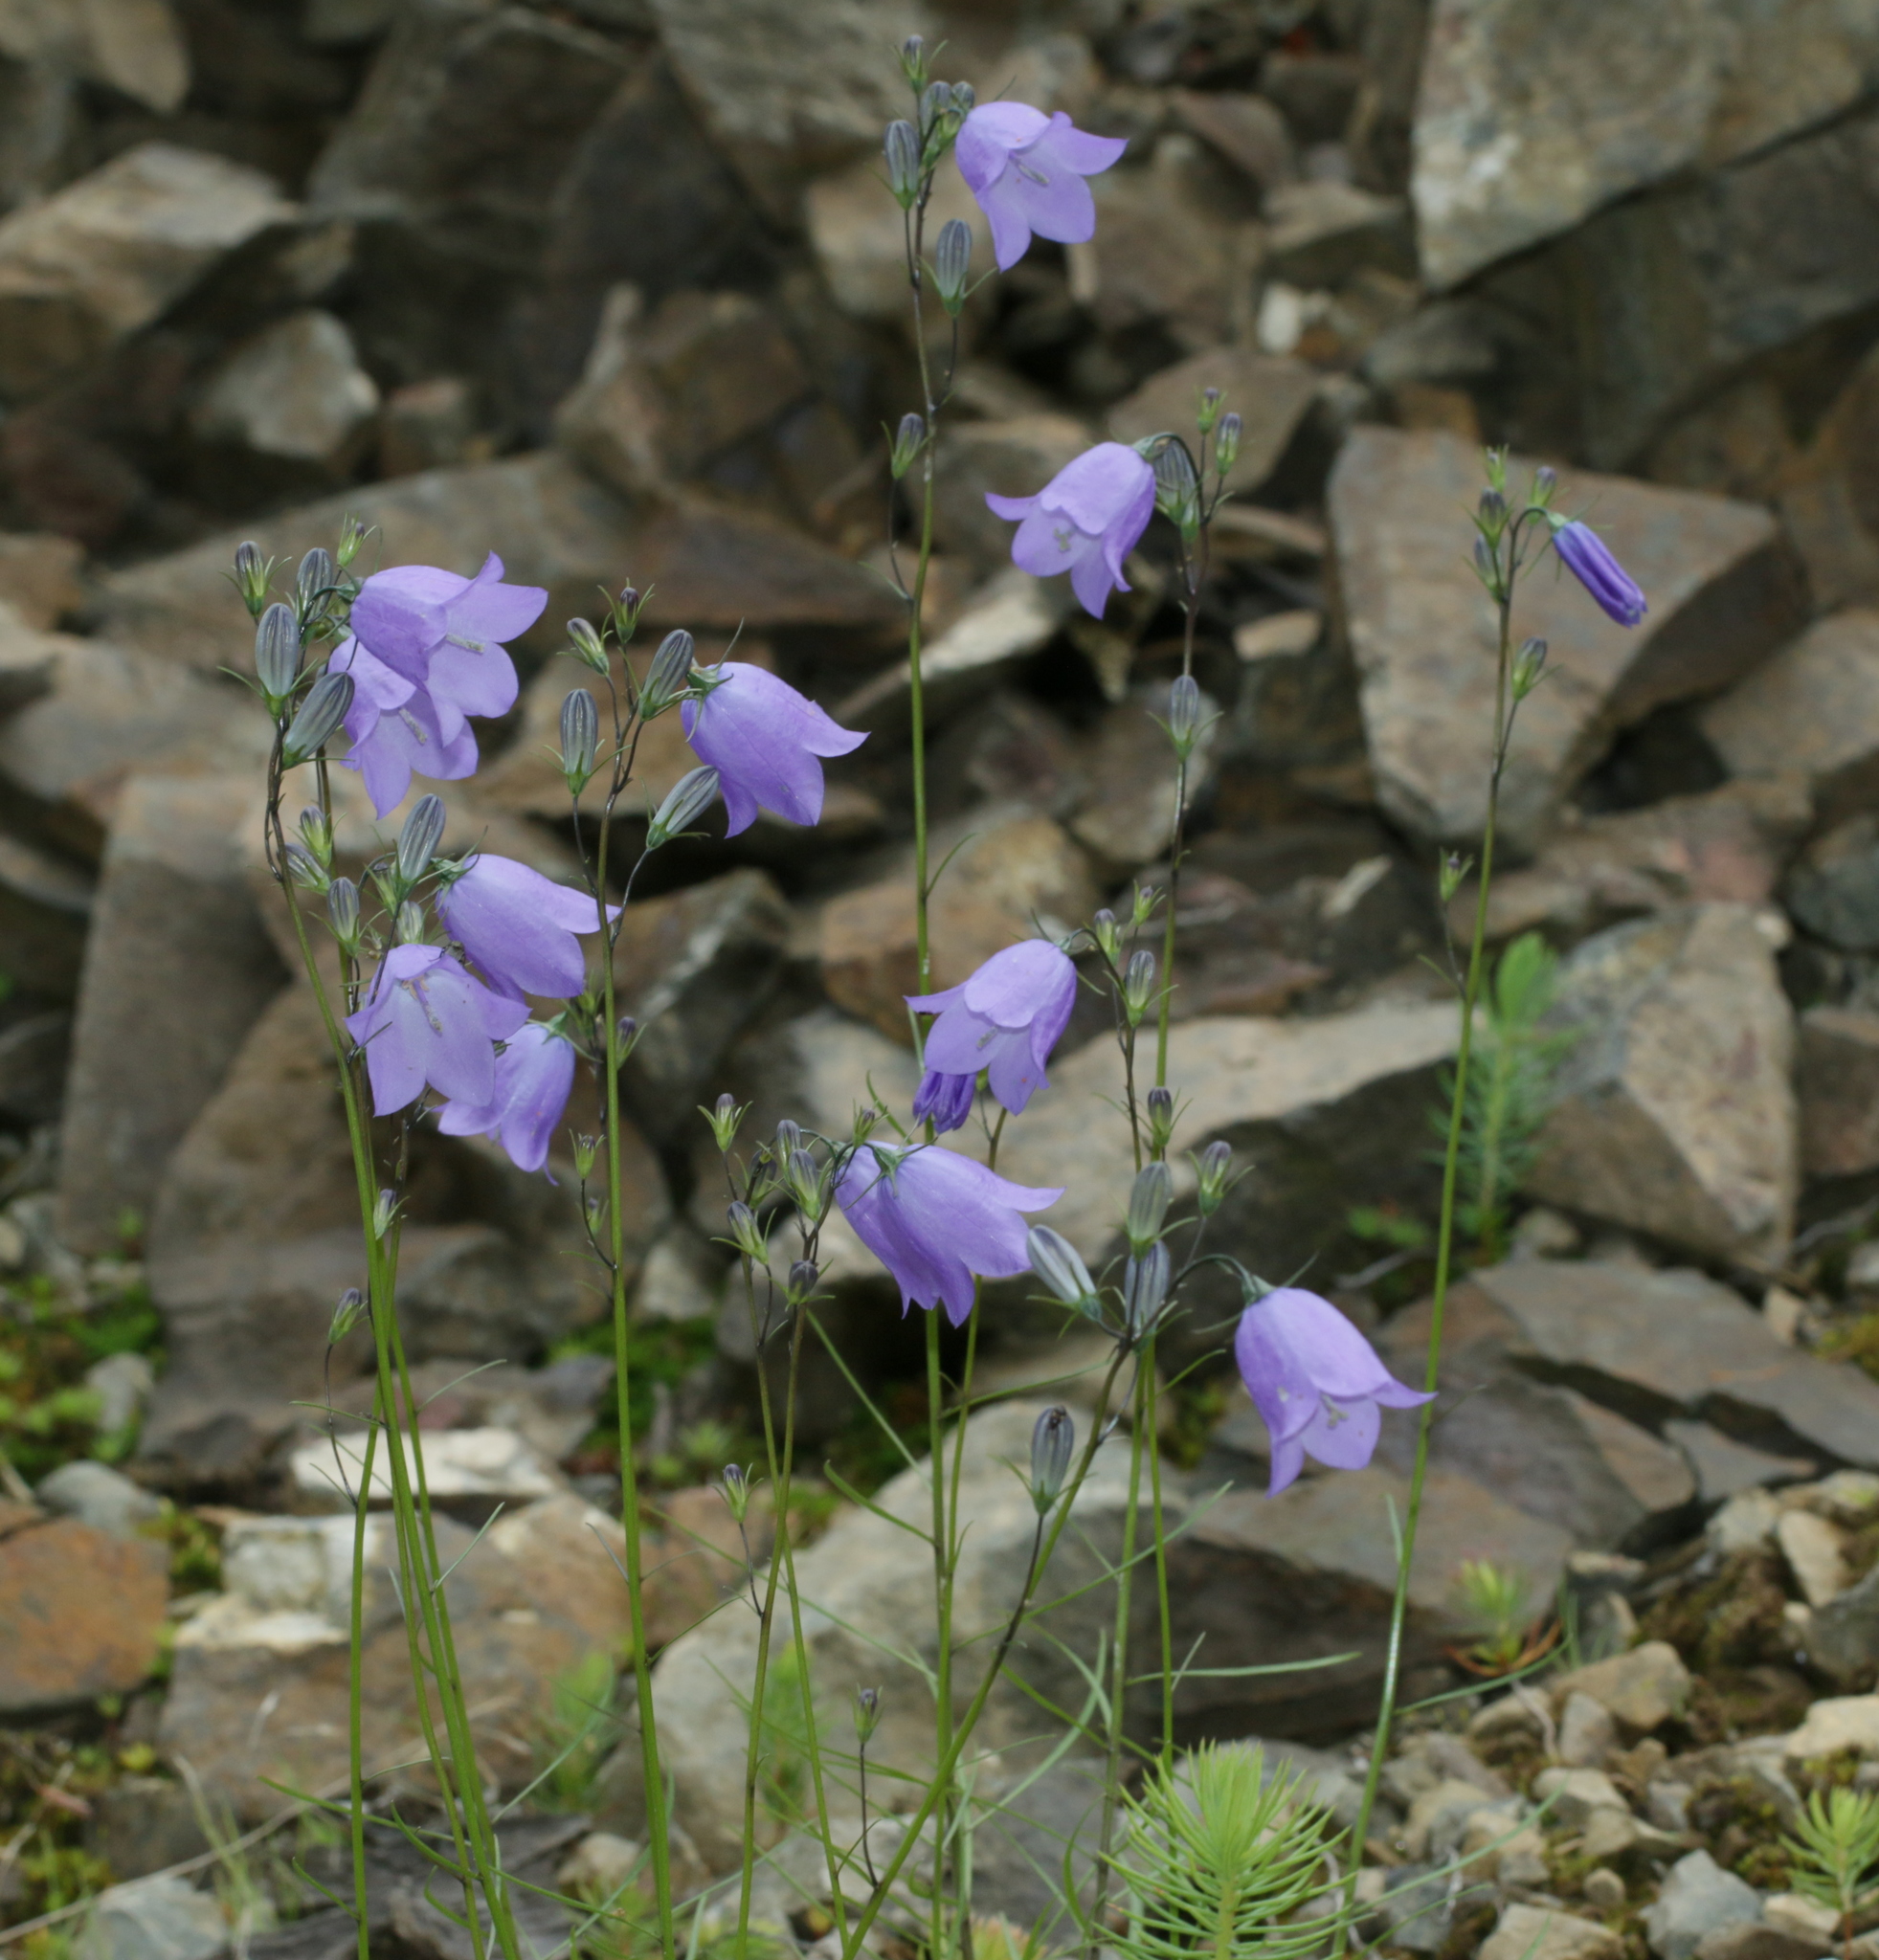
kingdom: Plantae
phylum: Tracheophyta
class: Magnoliopsida
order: Asterales
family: Campanulaceae
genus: Campanula
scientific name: Campanula rotundifolia
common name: Harebell
